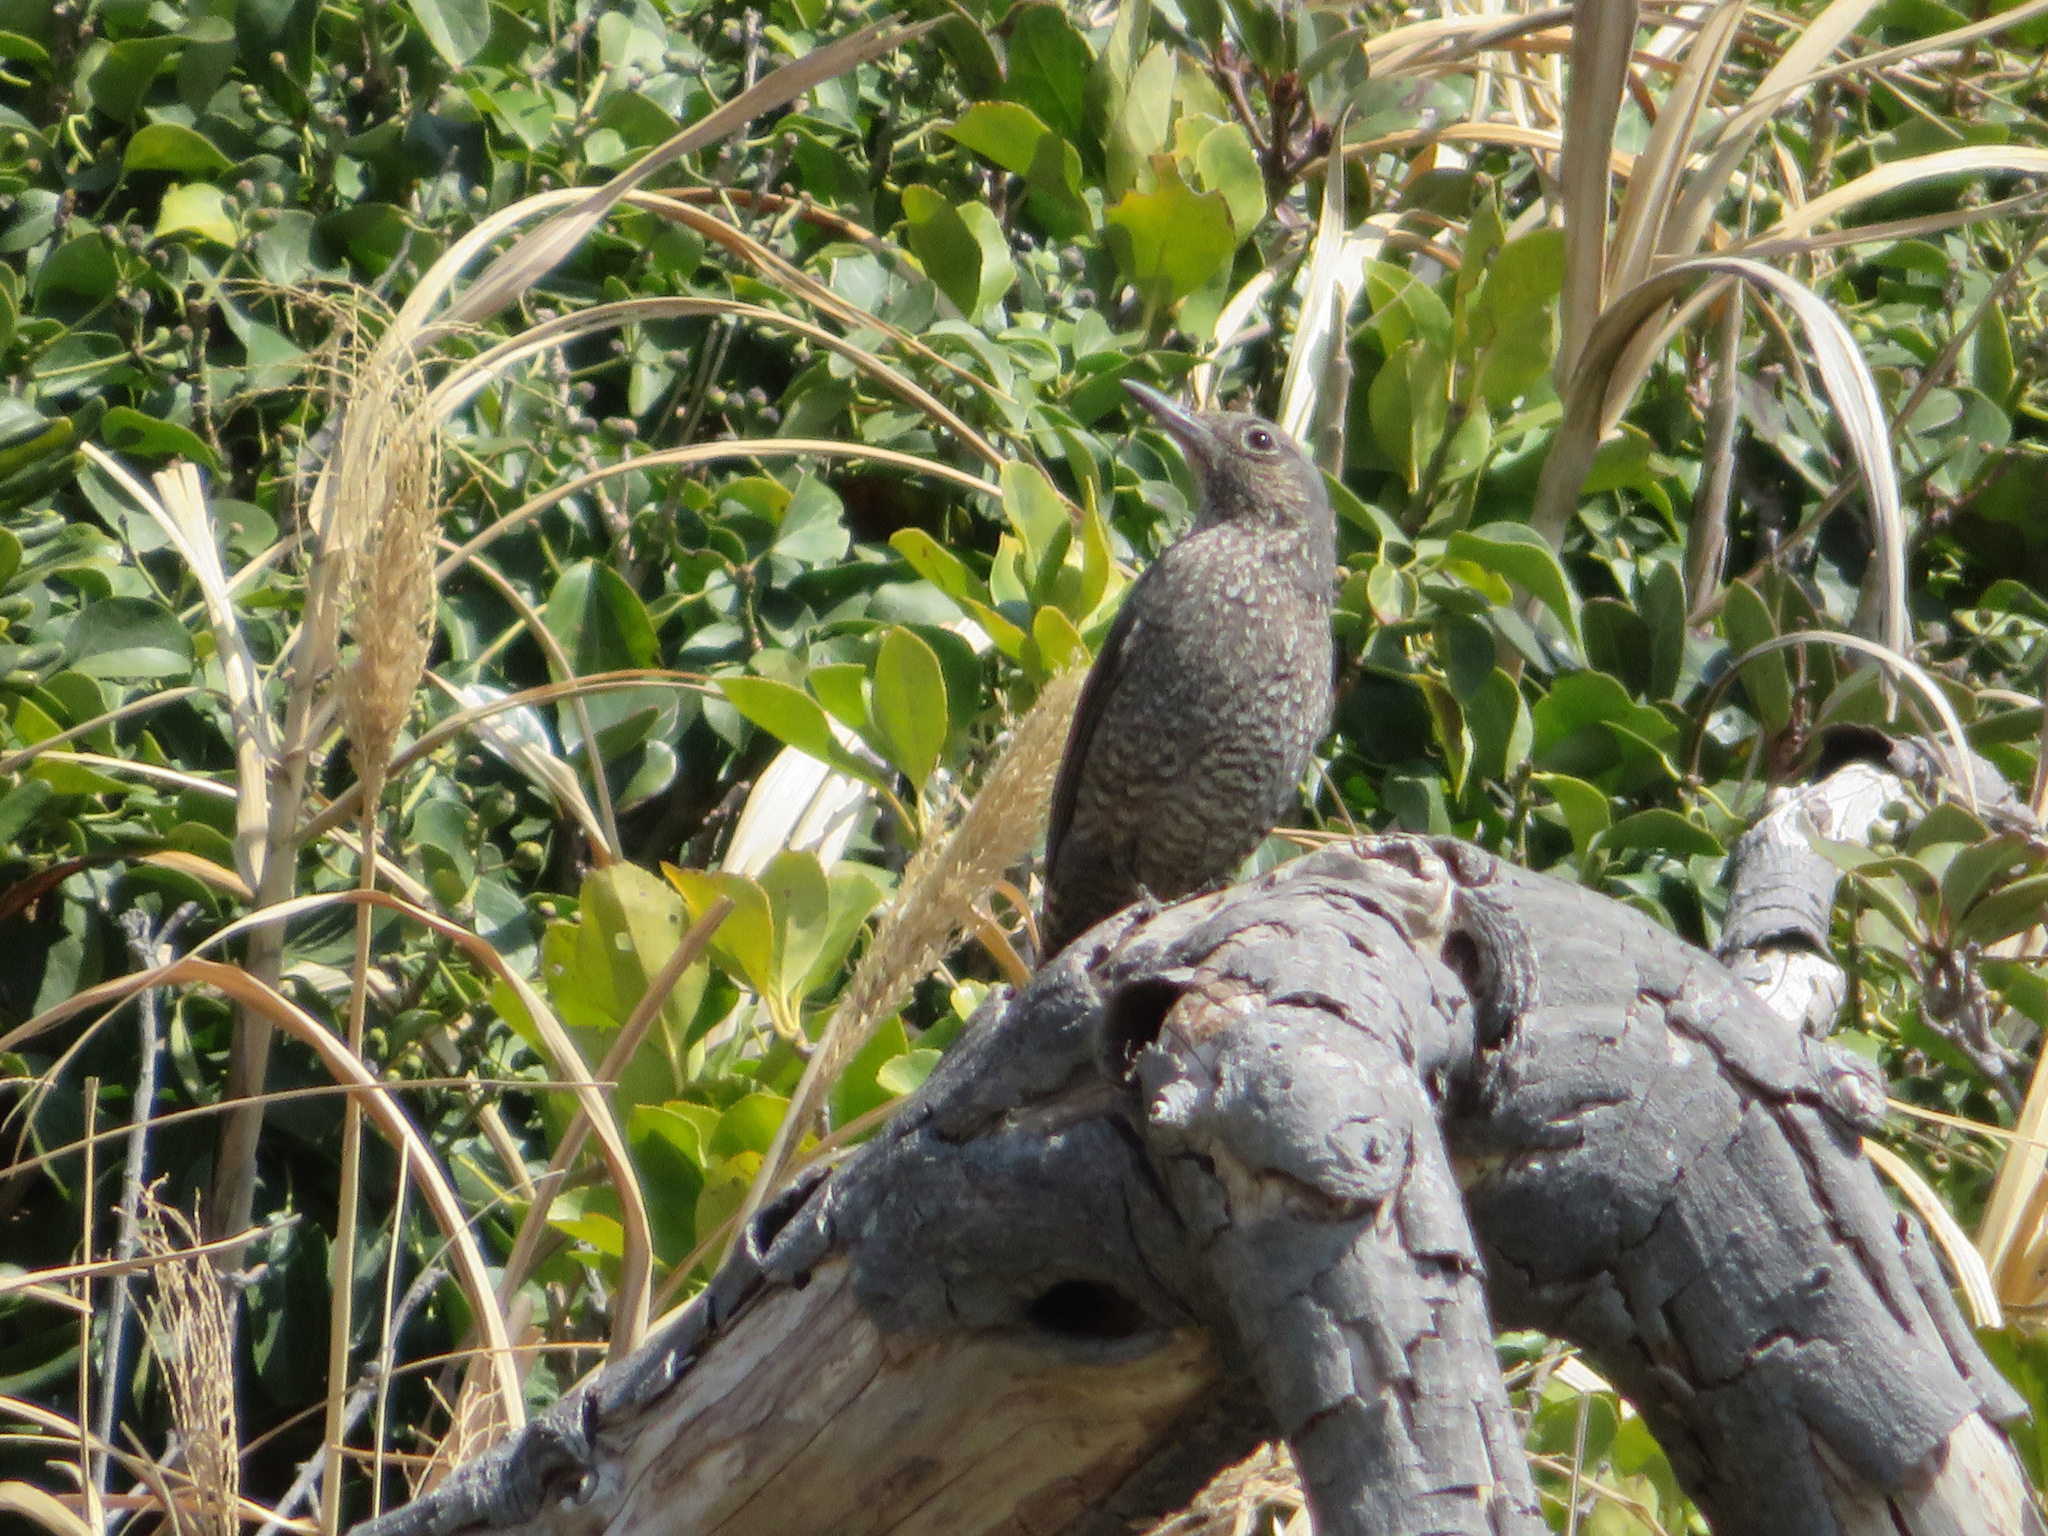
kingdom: Animalia
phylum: Chordata
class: Aves
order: Passeriformes
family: Muscicapidae
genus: Monticola
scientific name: Monticola solitarius
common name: Blue rock thrush
